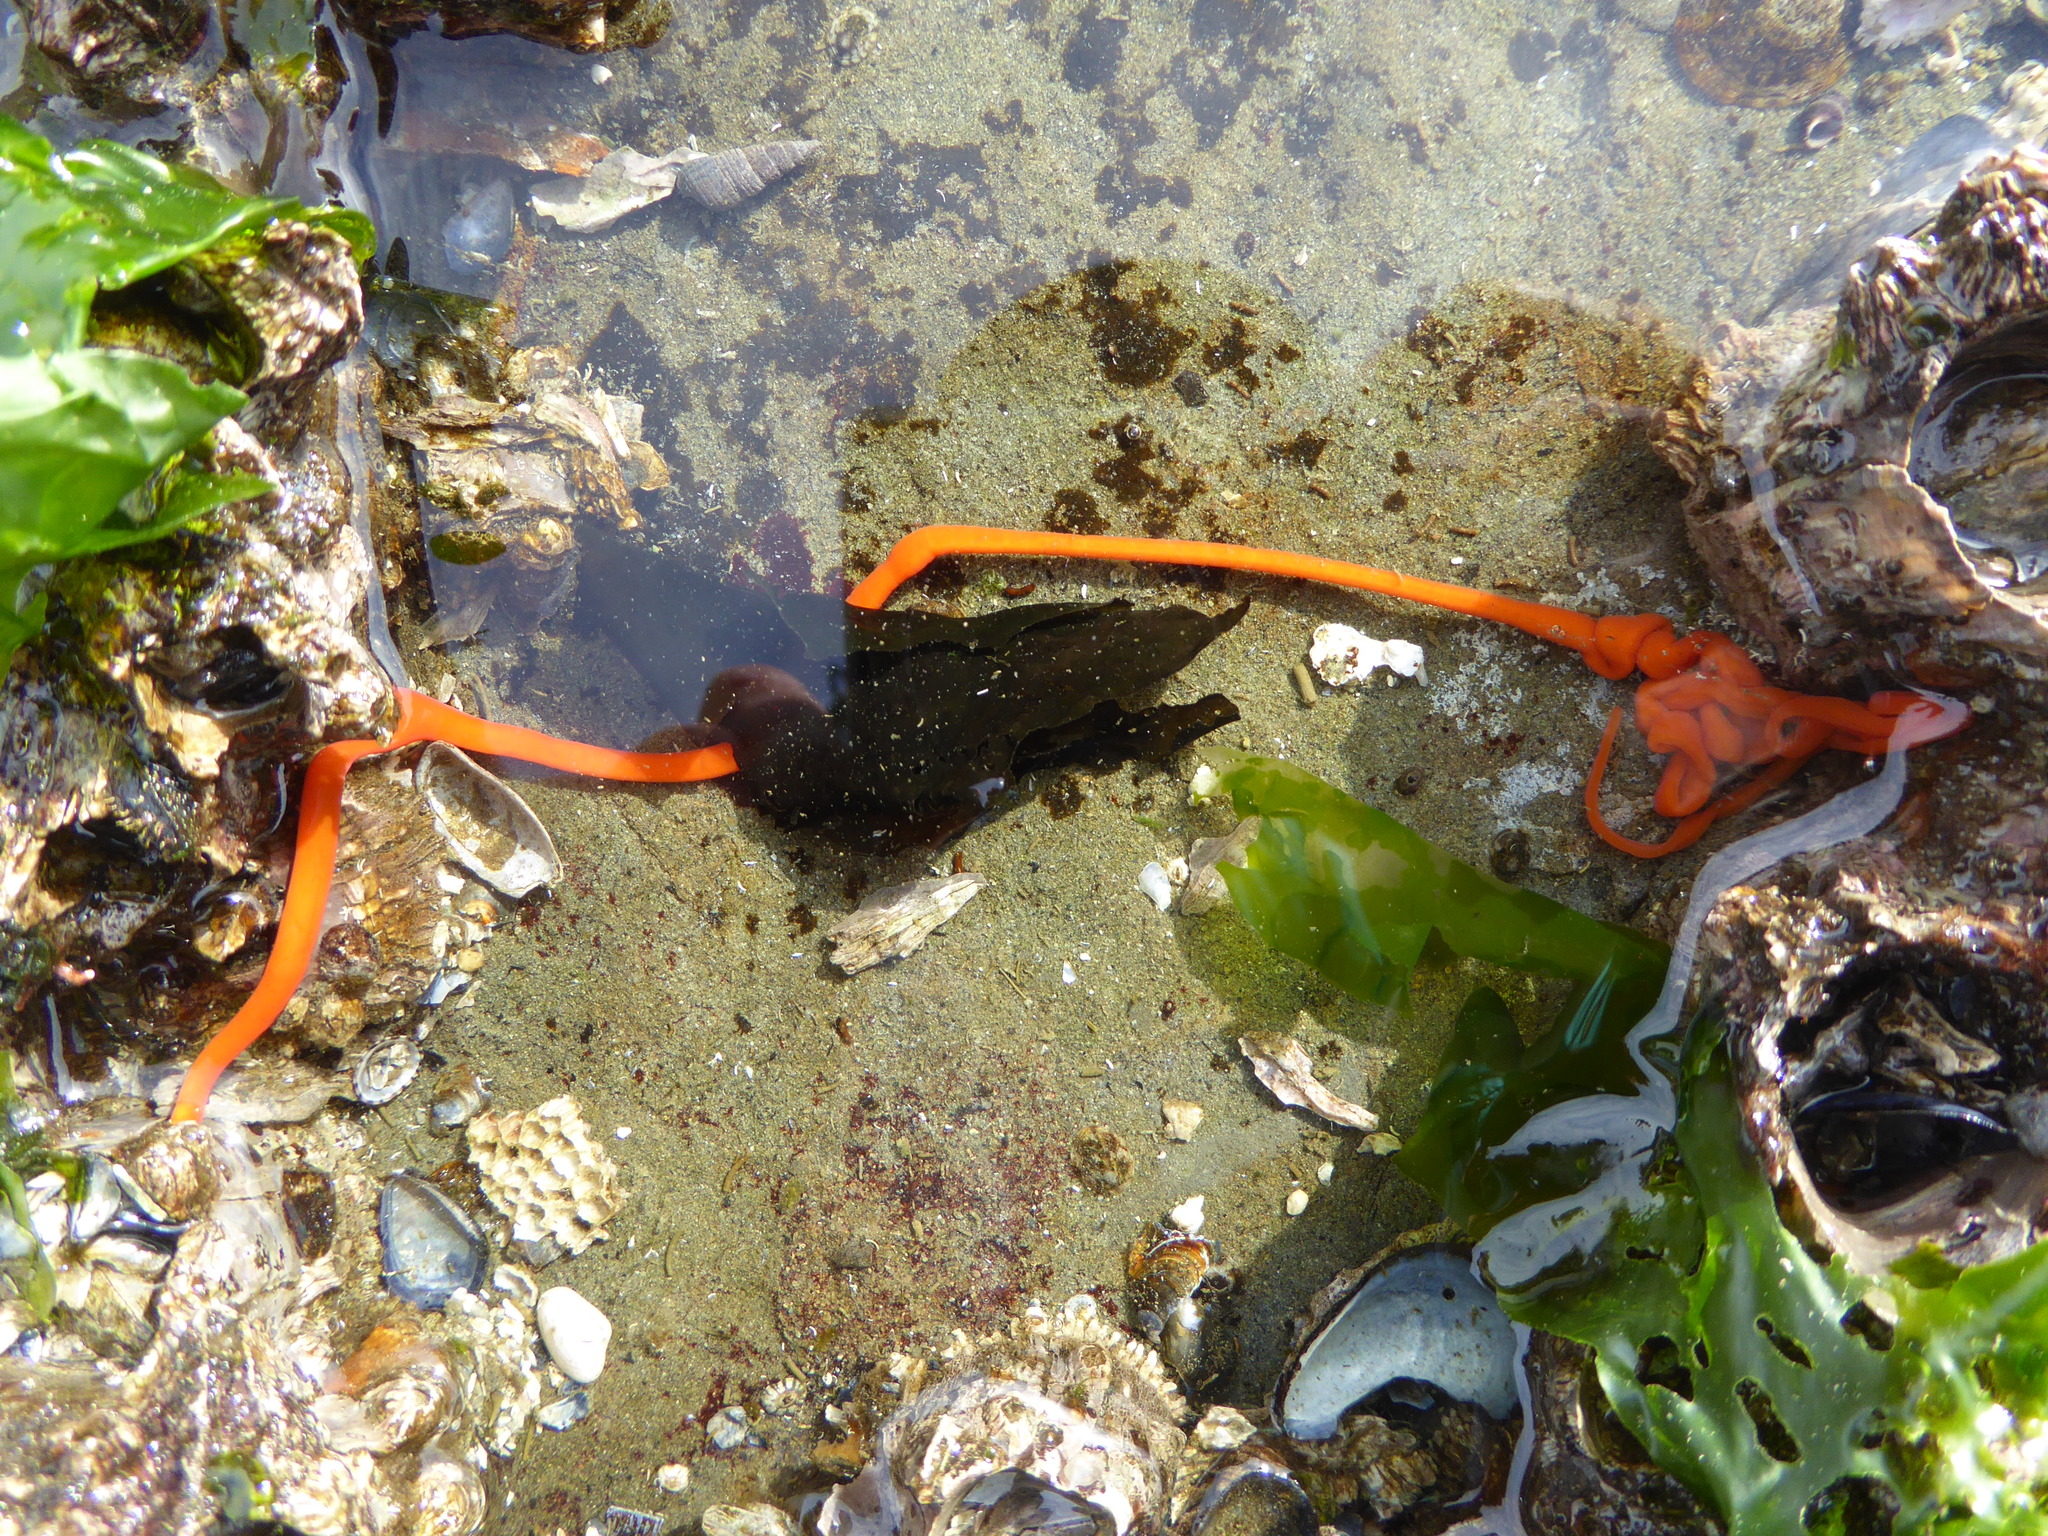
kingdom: Animalia
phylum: Nemertea
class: Palaeonemertea
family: Tubulanidae
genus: Tubulanus
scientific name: Tubulanus polymorphus
